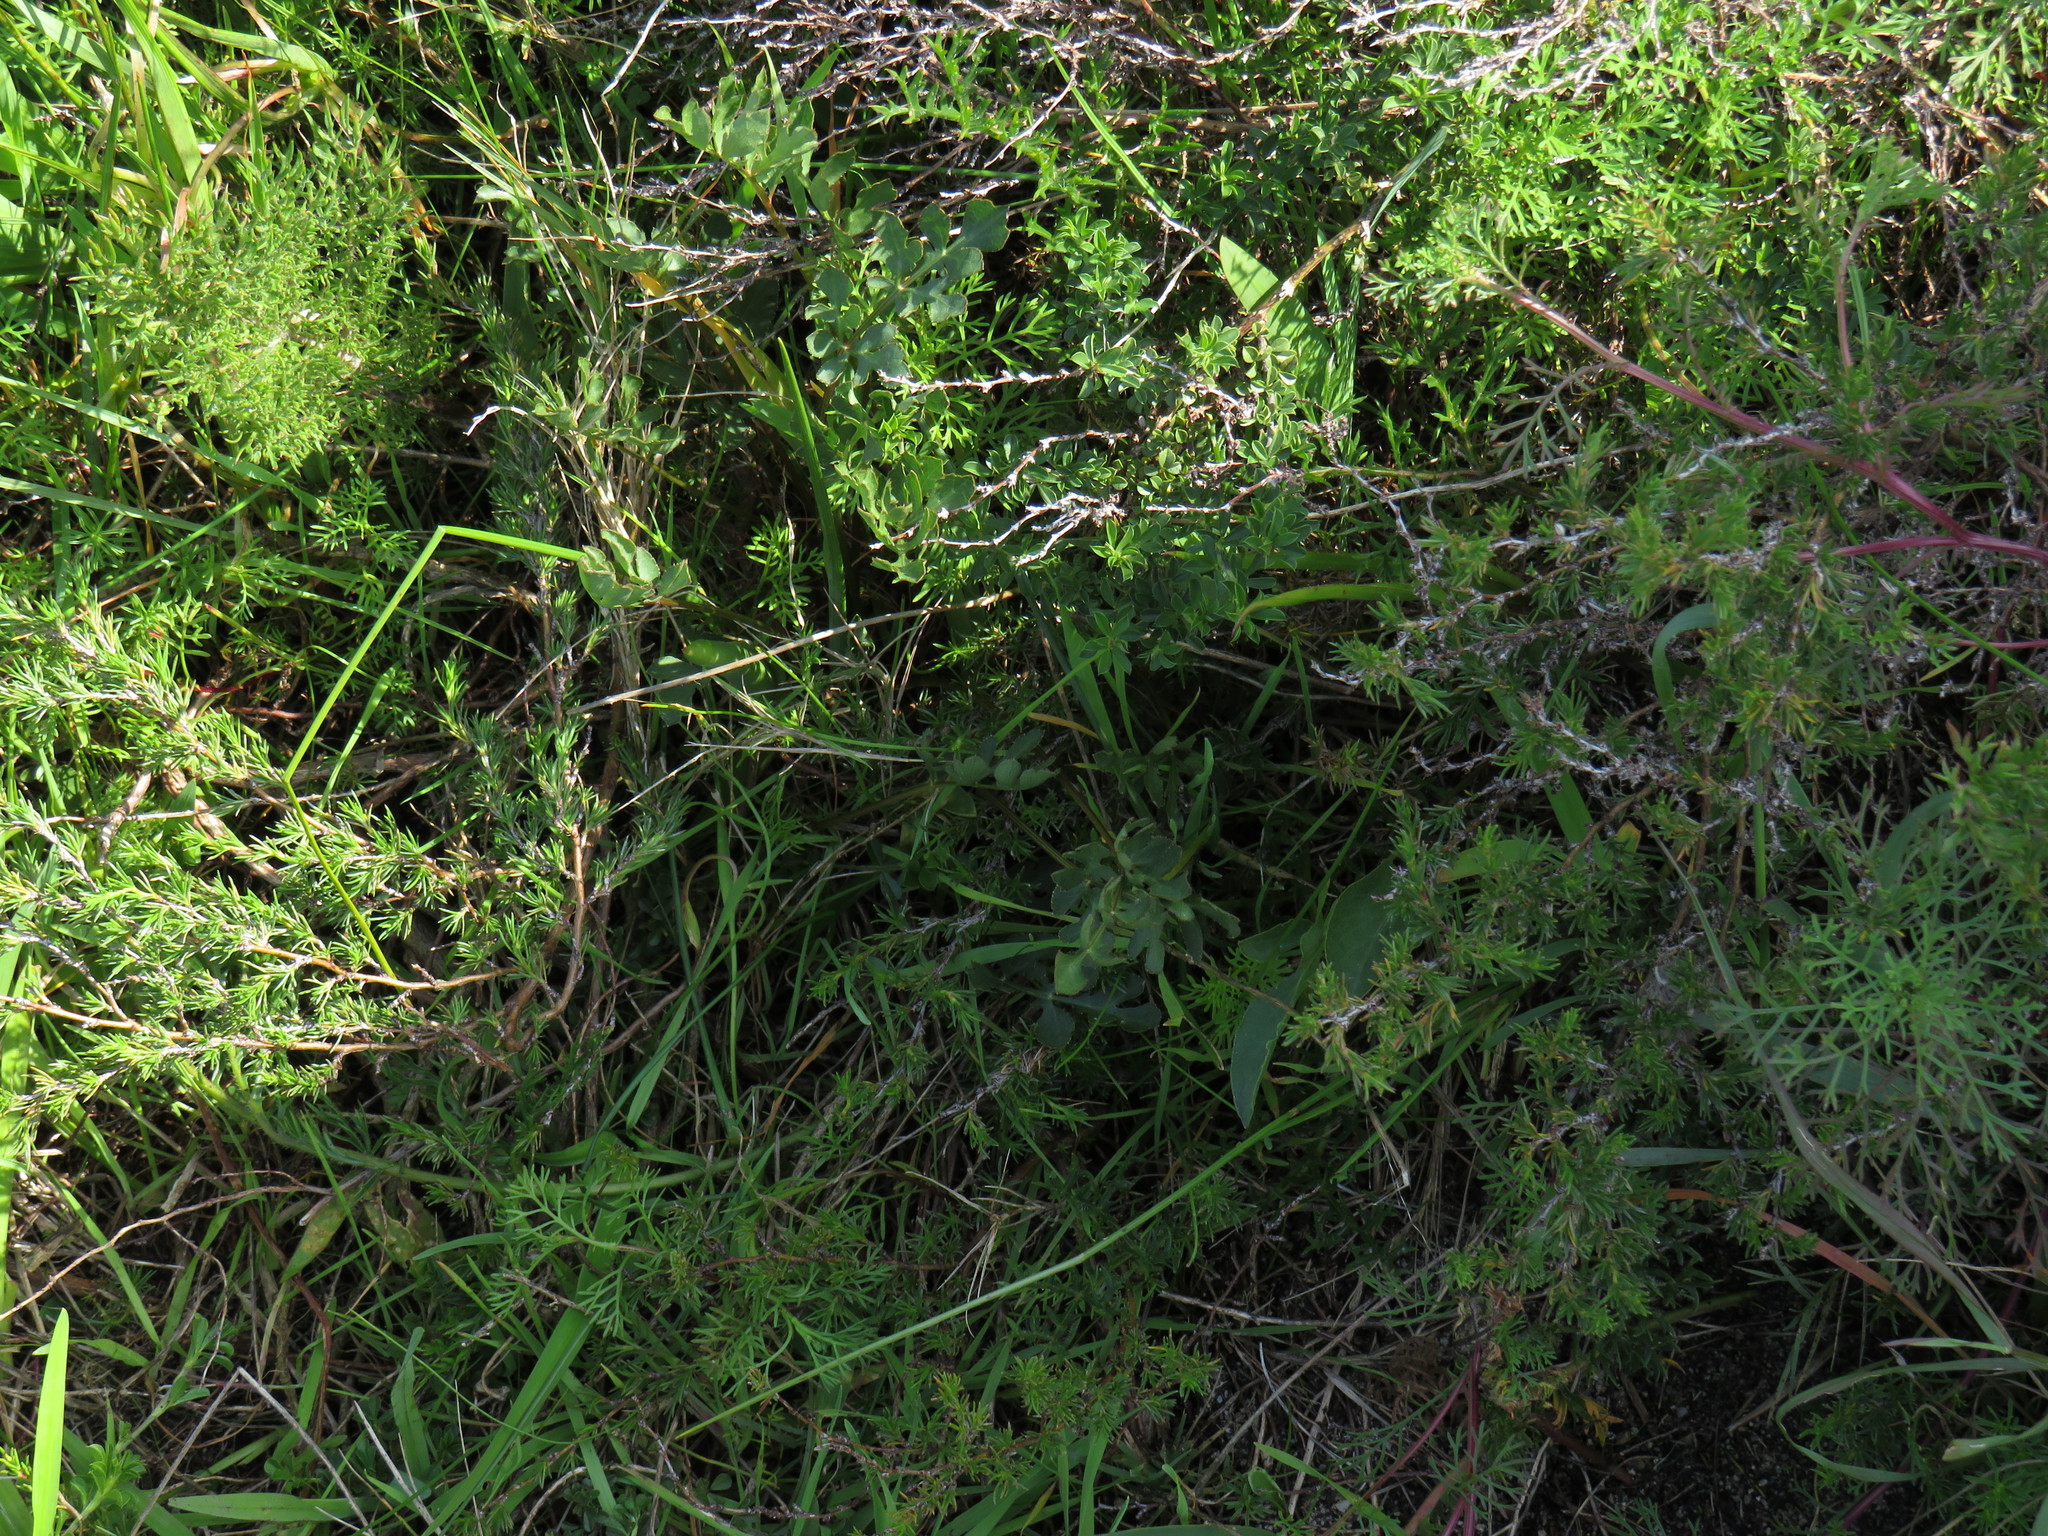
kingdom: Plantae
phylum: Tracheophyta
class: Magnoliopsida
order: Apiales
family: Apiaceae
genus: Lichtensteinia
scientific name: Lichtensteinia obscura
